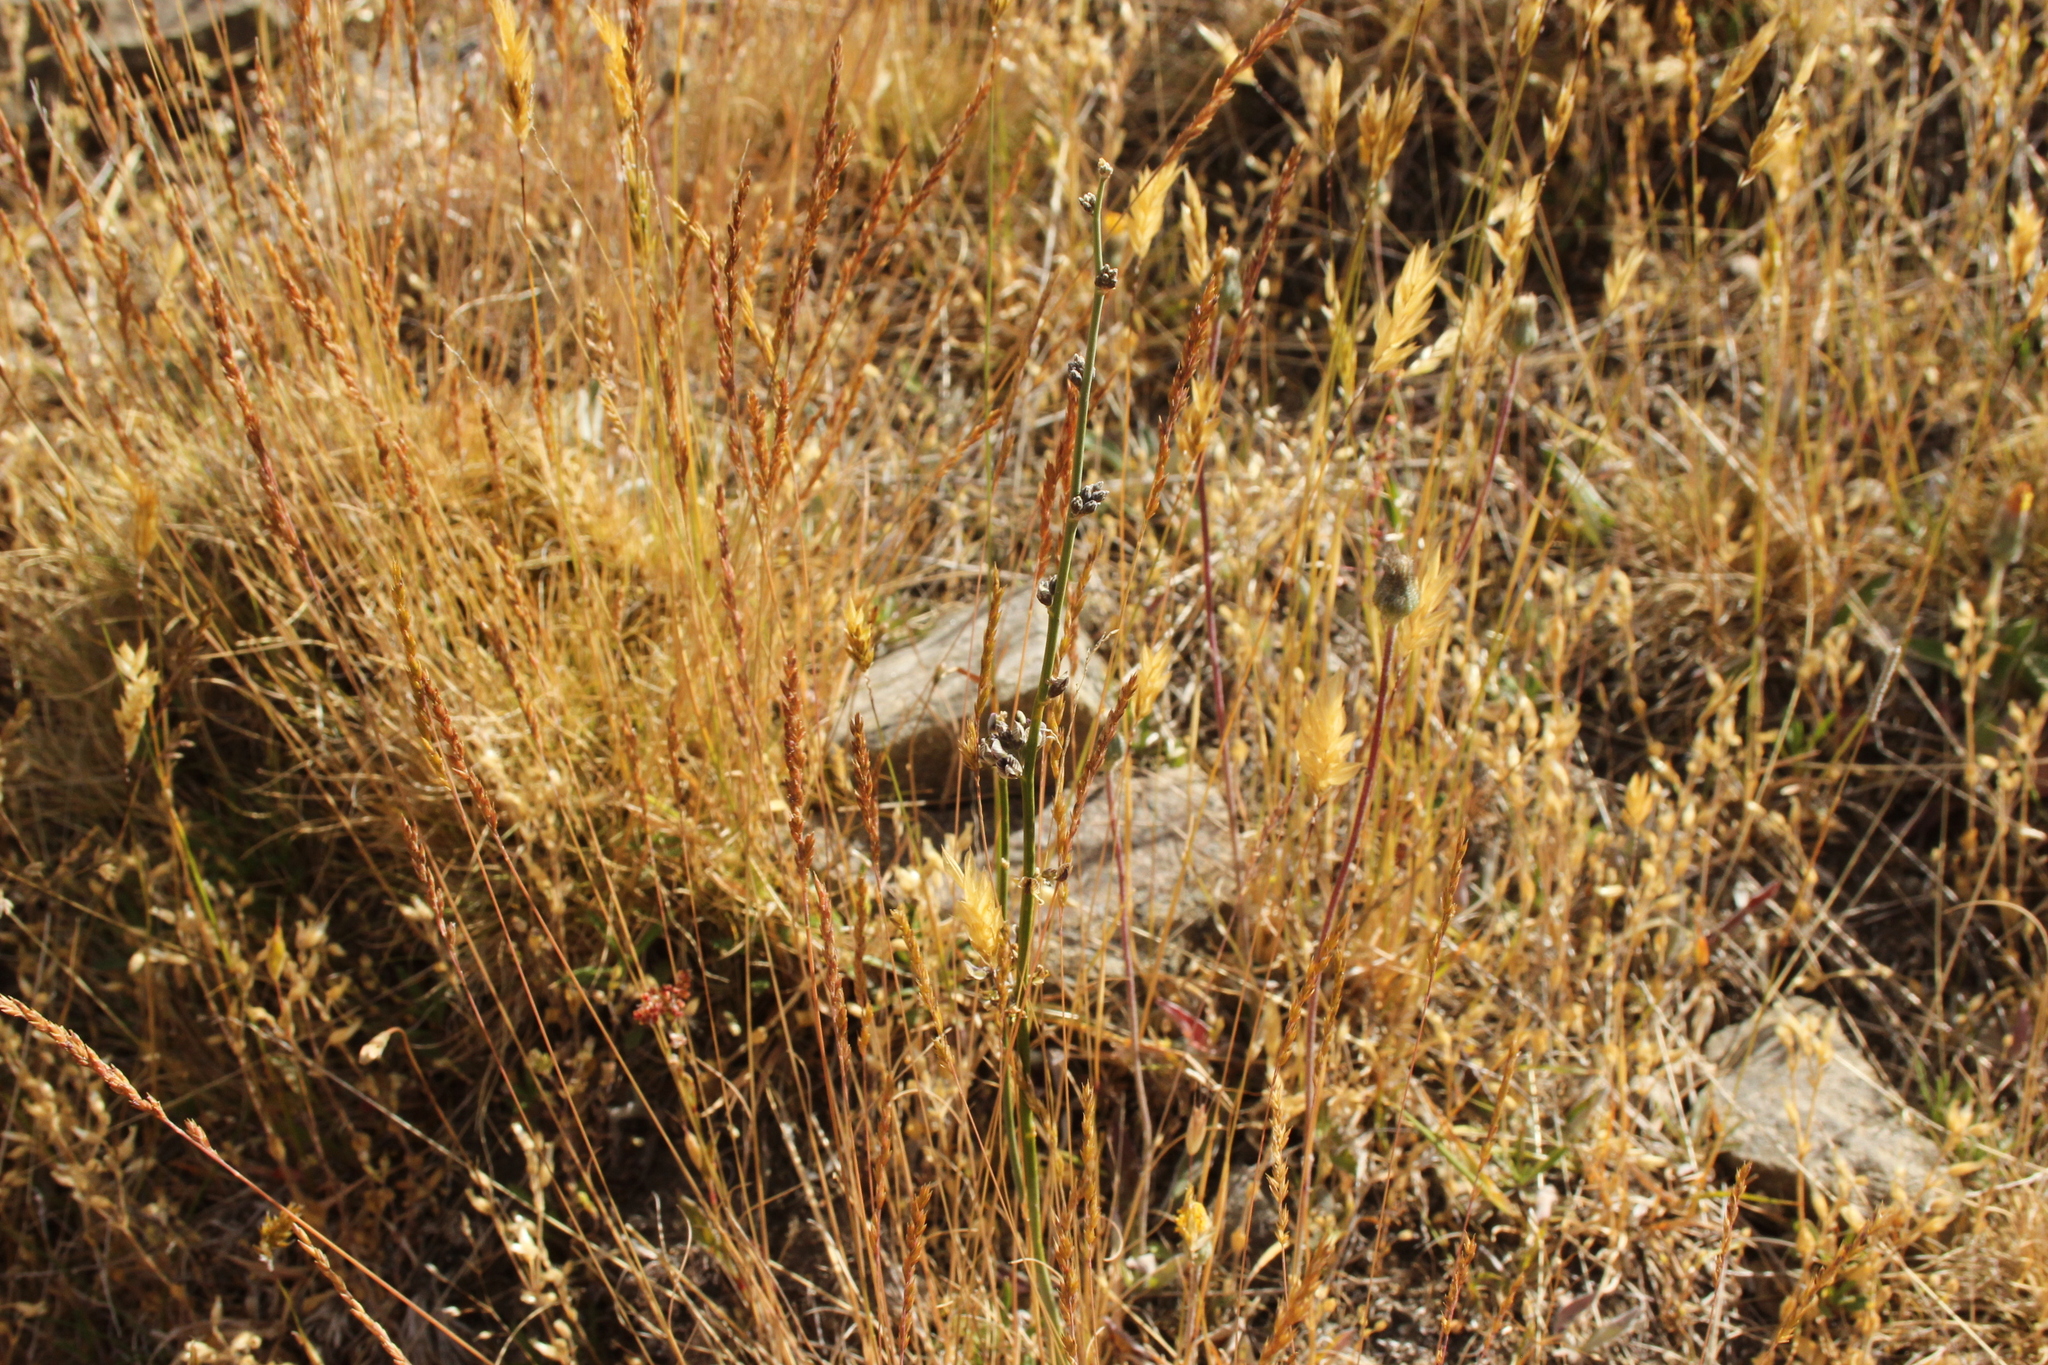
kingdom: Plantae
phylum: Tracheophyta
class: Magnoliopsida
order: Fabales
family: Fabaceae
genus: Carmichaelia
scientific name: Carmichaelia curta
